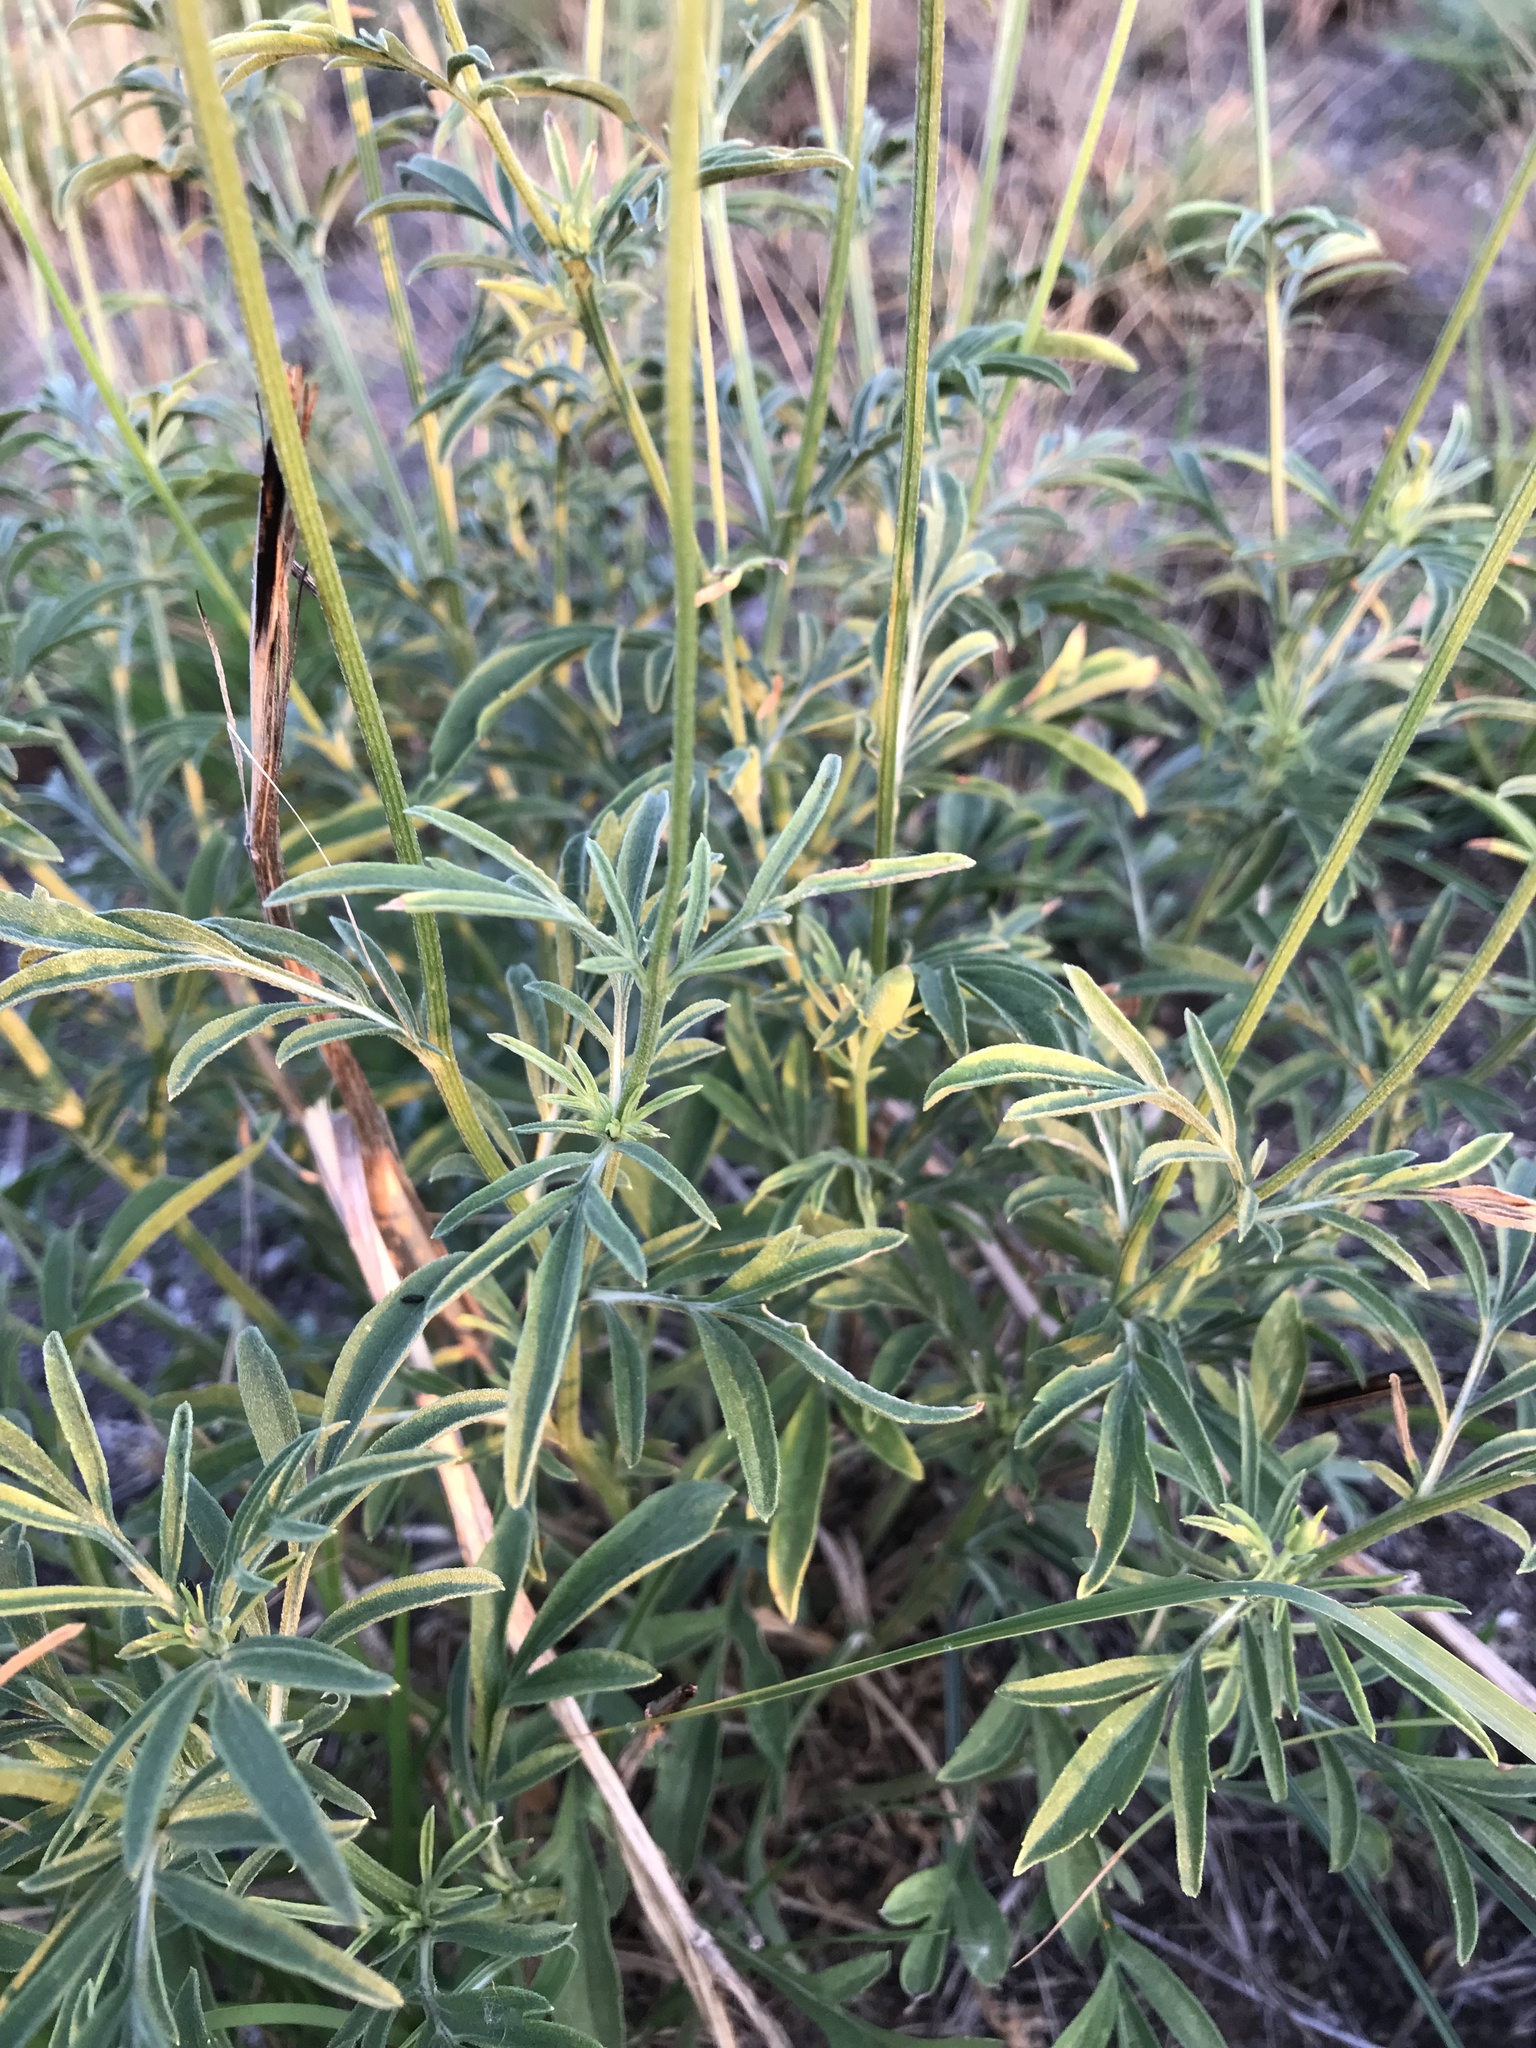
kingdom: Plantae
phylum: Tracheophyta
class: Magnoliopsida
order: Asterales
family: Asteraceae
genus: Ratibida
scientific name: Ratibida columnifera
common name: Prairie coneflower
